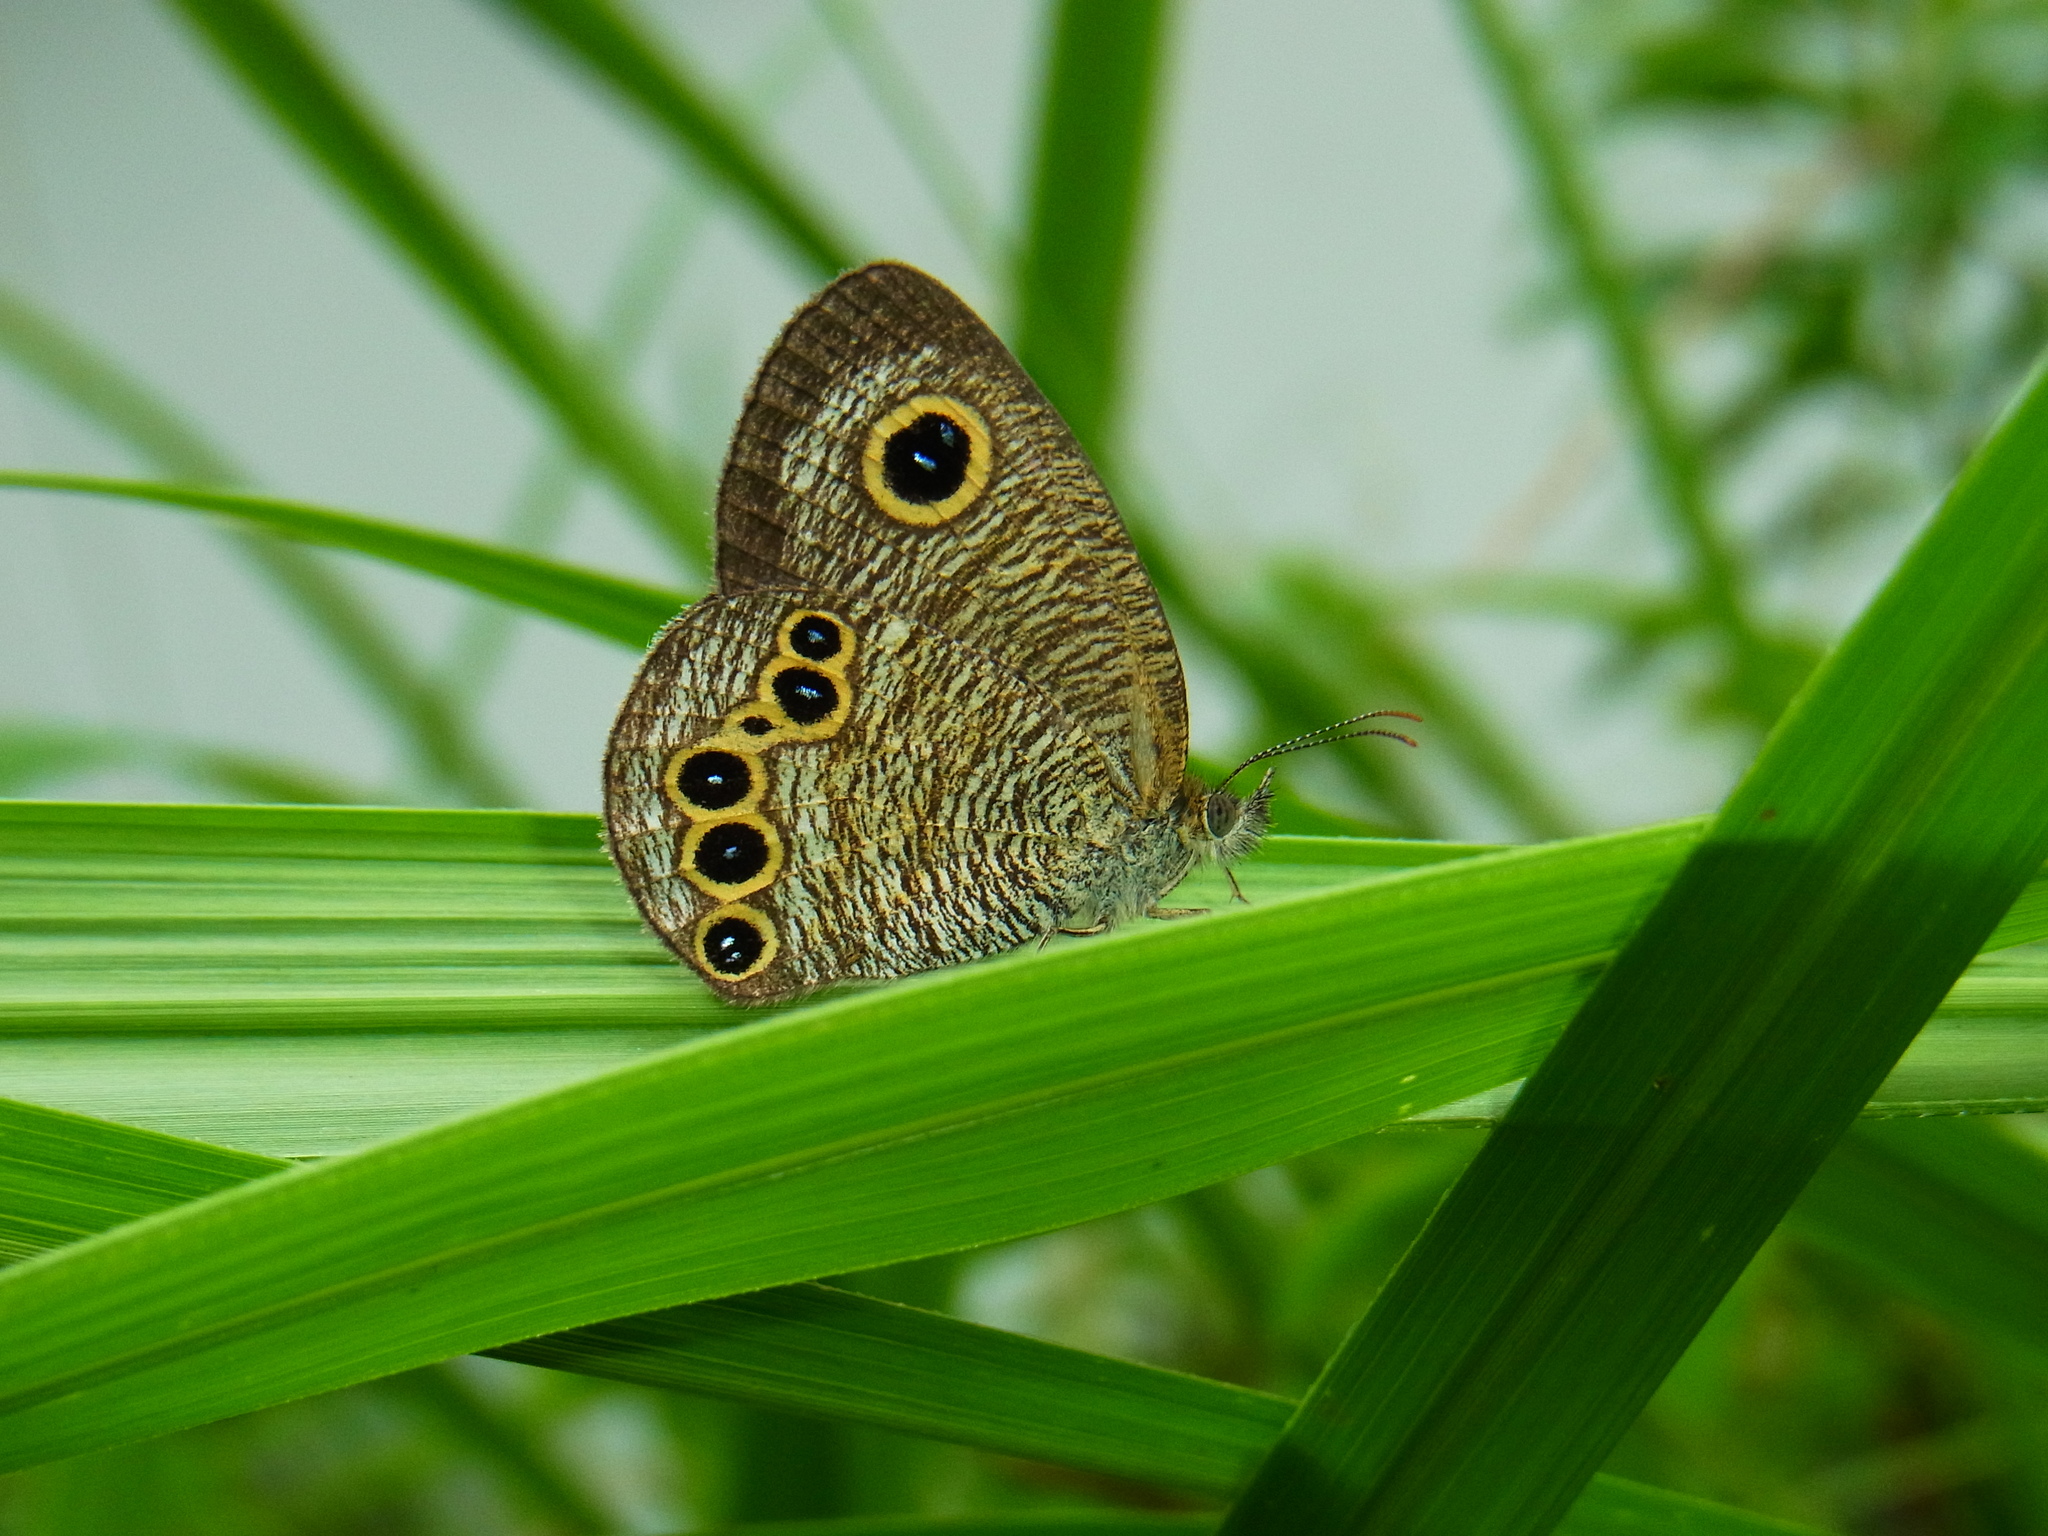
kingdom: Animalia
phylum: Arthropoda
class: Insecta
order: Lepidoptera
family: Nymphalidae
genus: Ypthima
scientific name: Ypthima argus
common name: Common fivering
